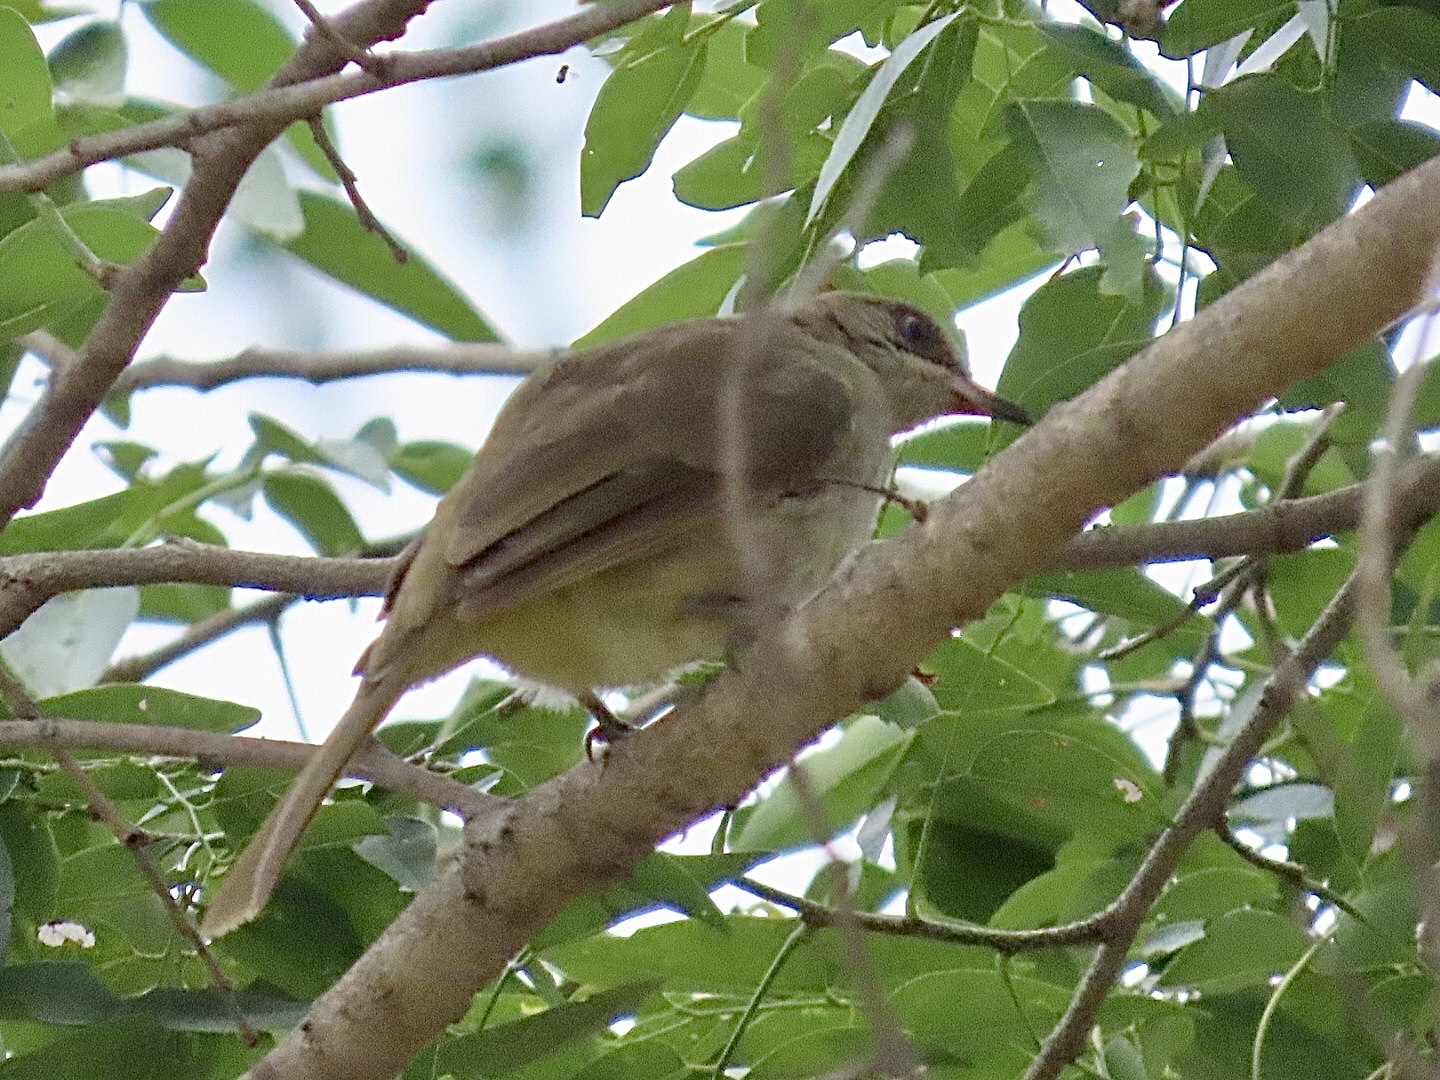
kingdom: Animalia
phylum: Chordata
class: Aves
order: Passeriformes
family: Pycnonotidae
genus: Pycnonotus
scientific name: Pycnonotus blanfordi
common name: Streak-eared bulbul
